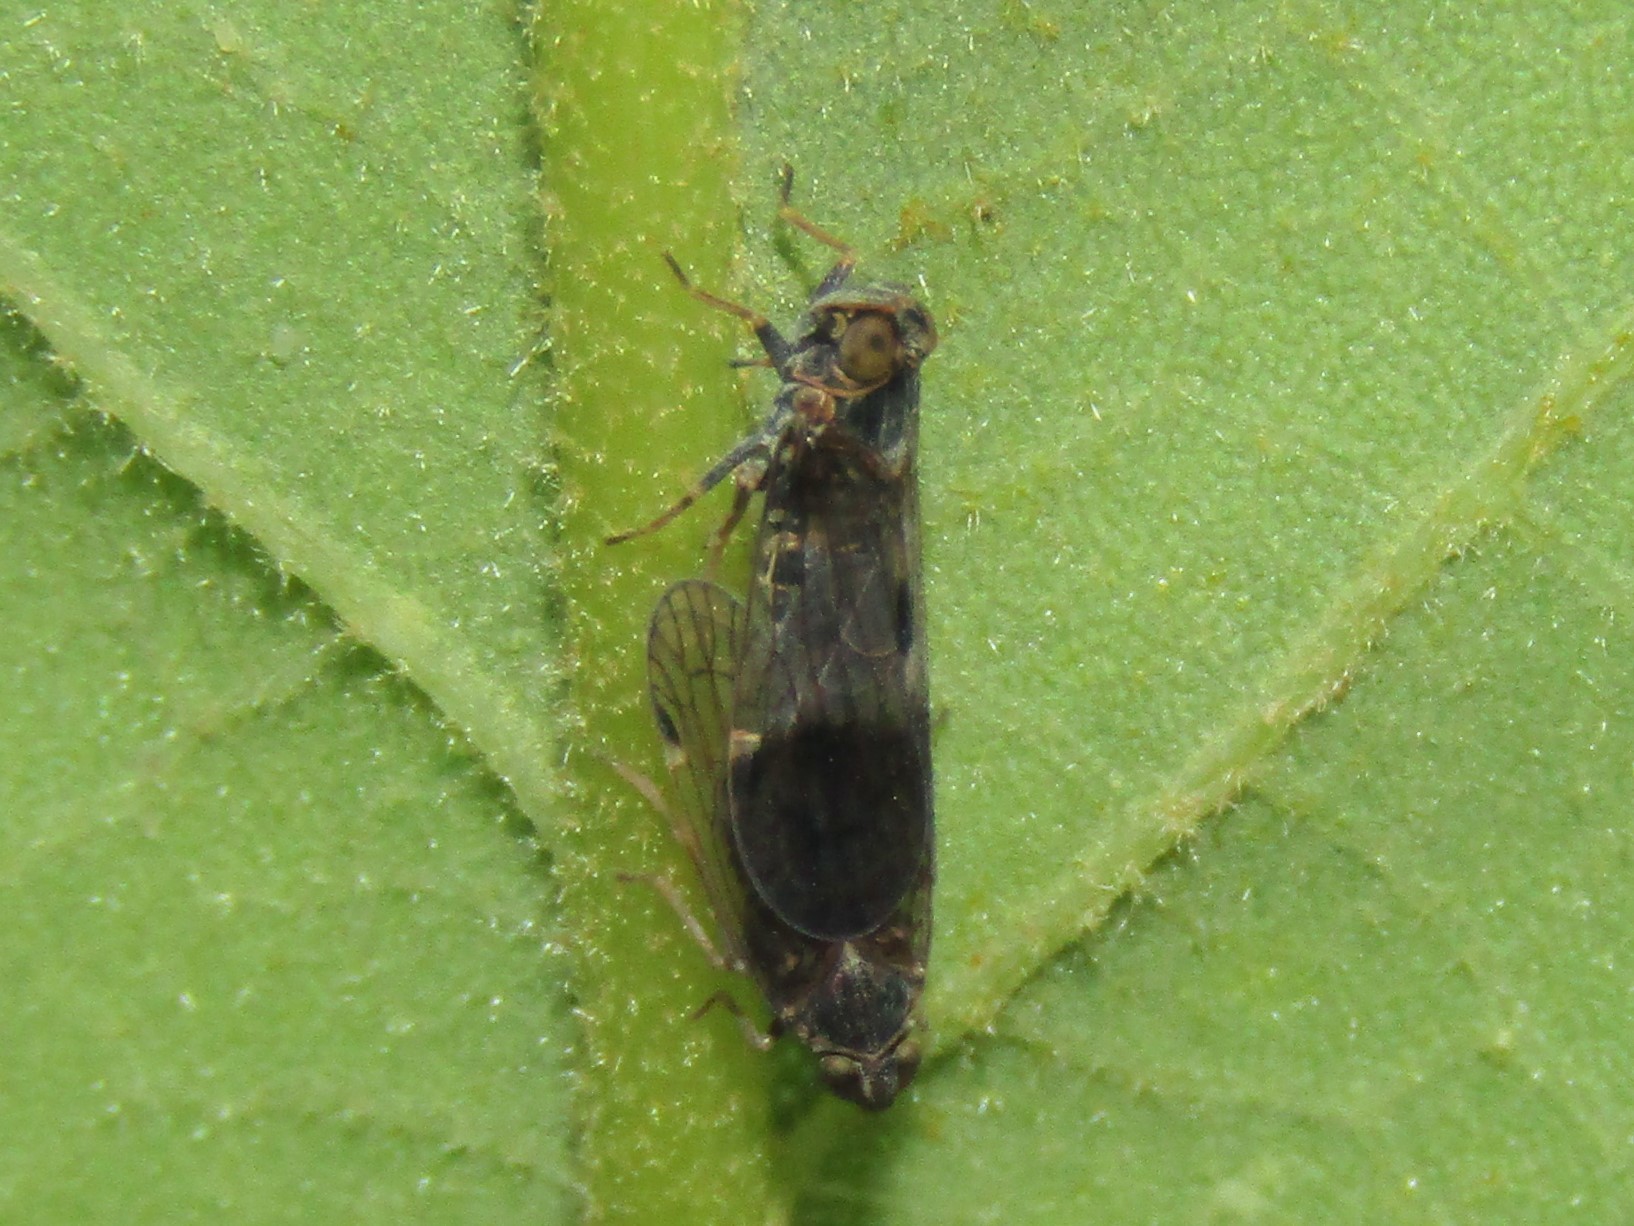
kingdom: Animalia
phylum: Arthropoda
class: Insecta
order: Hemiptera
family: Cixiidae
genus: Melanoliarus
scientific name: Melanoliarus humilis
